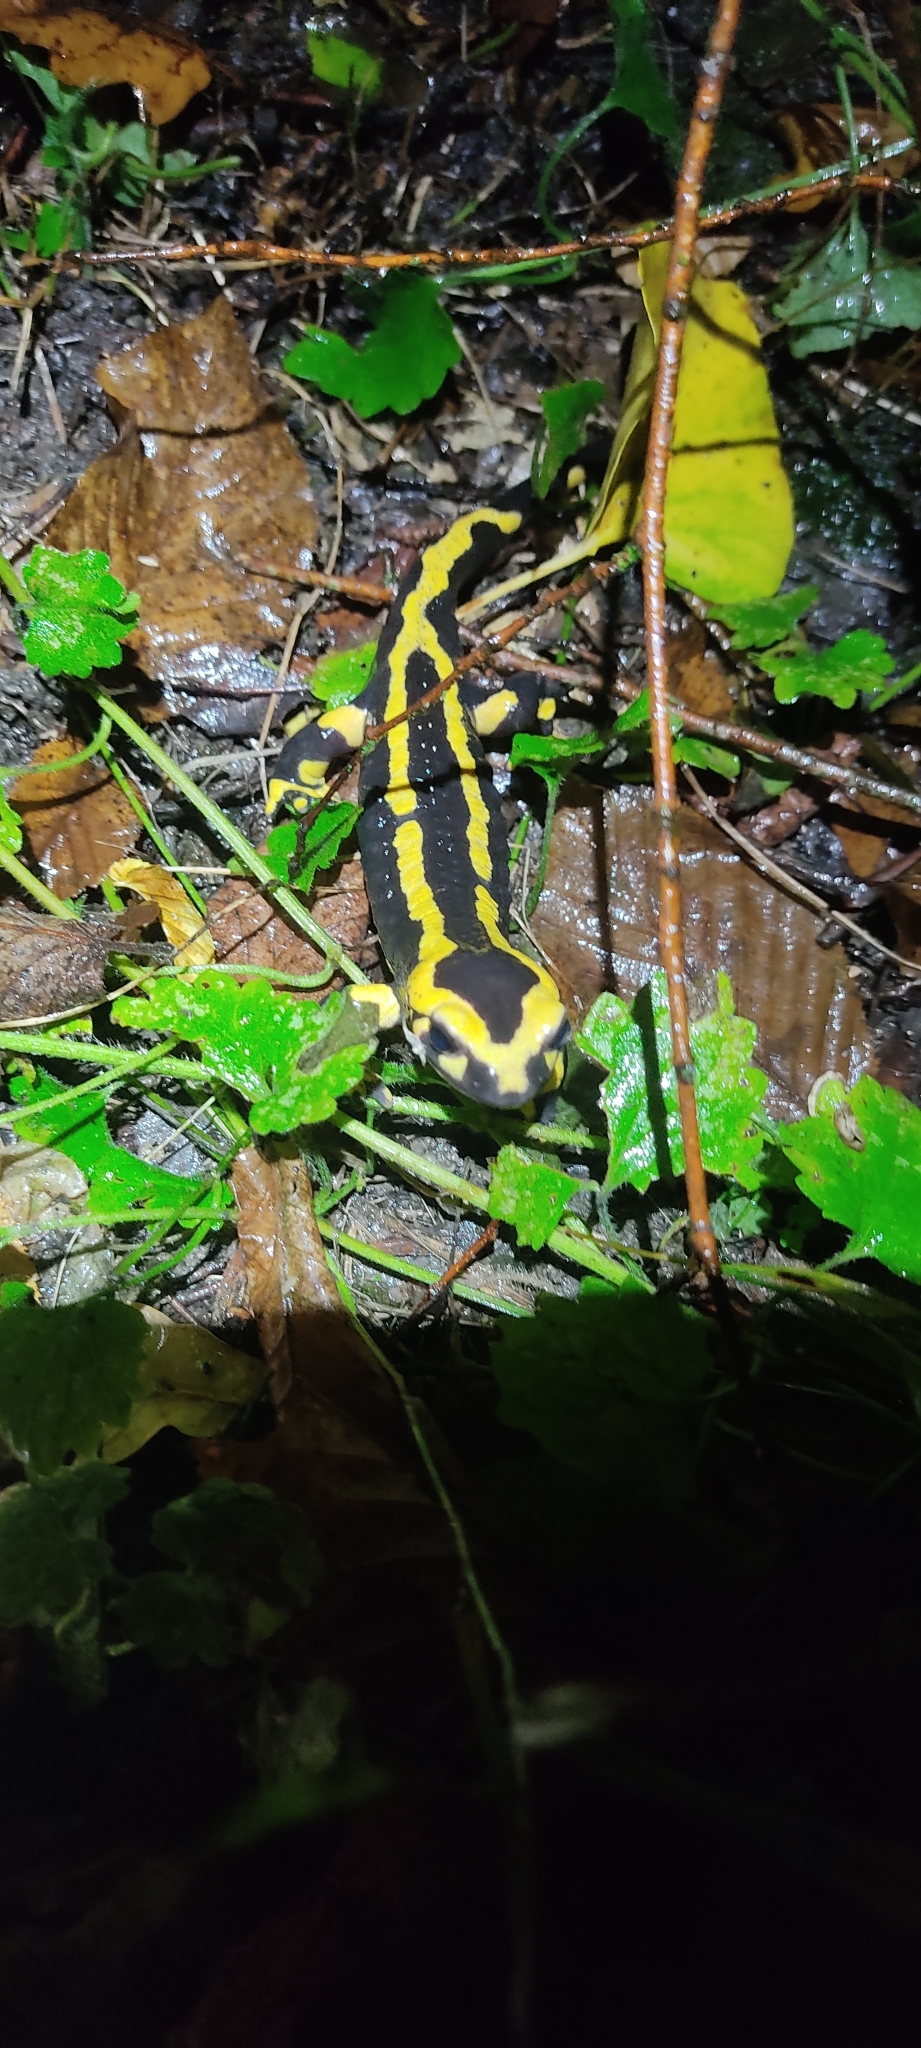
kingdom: Animalia
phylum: Chordata
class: Amphibia
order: Caudata
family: Salamandridae
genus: Salamandra
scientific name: Salamandra salamandra
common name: Fire salamander
